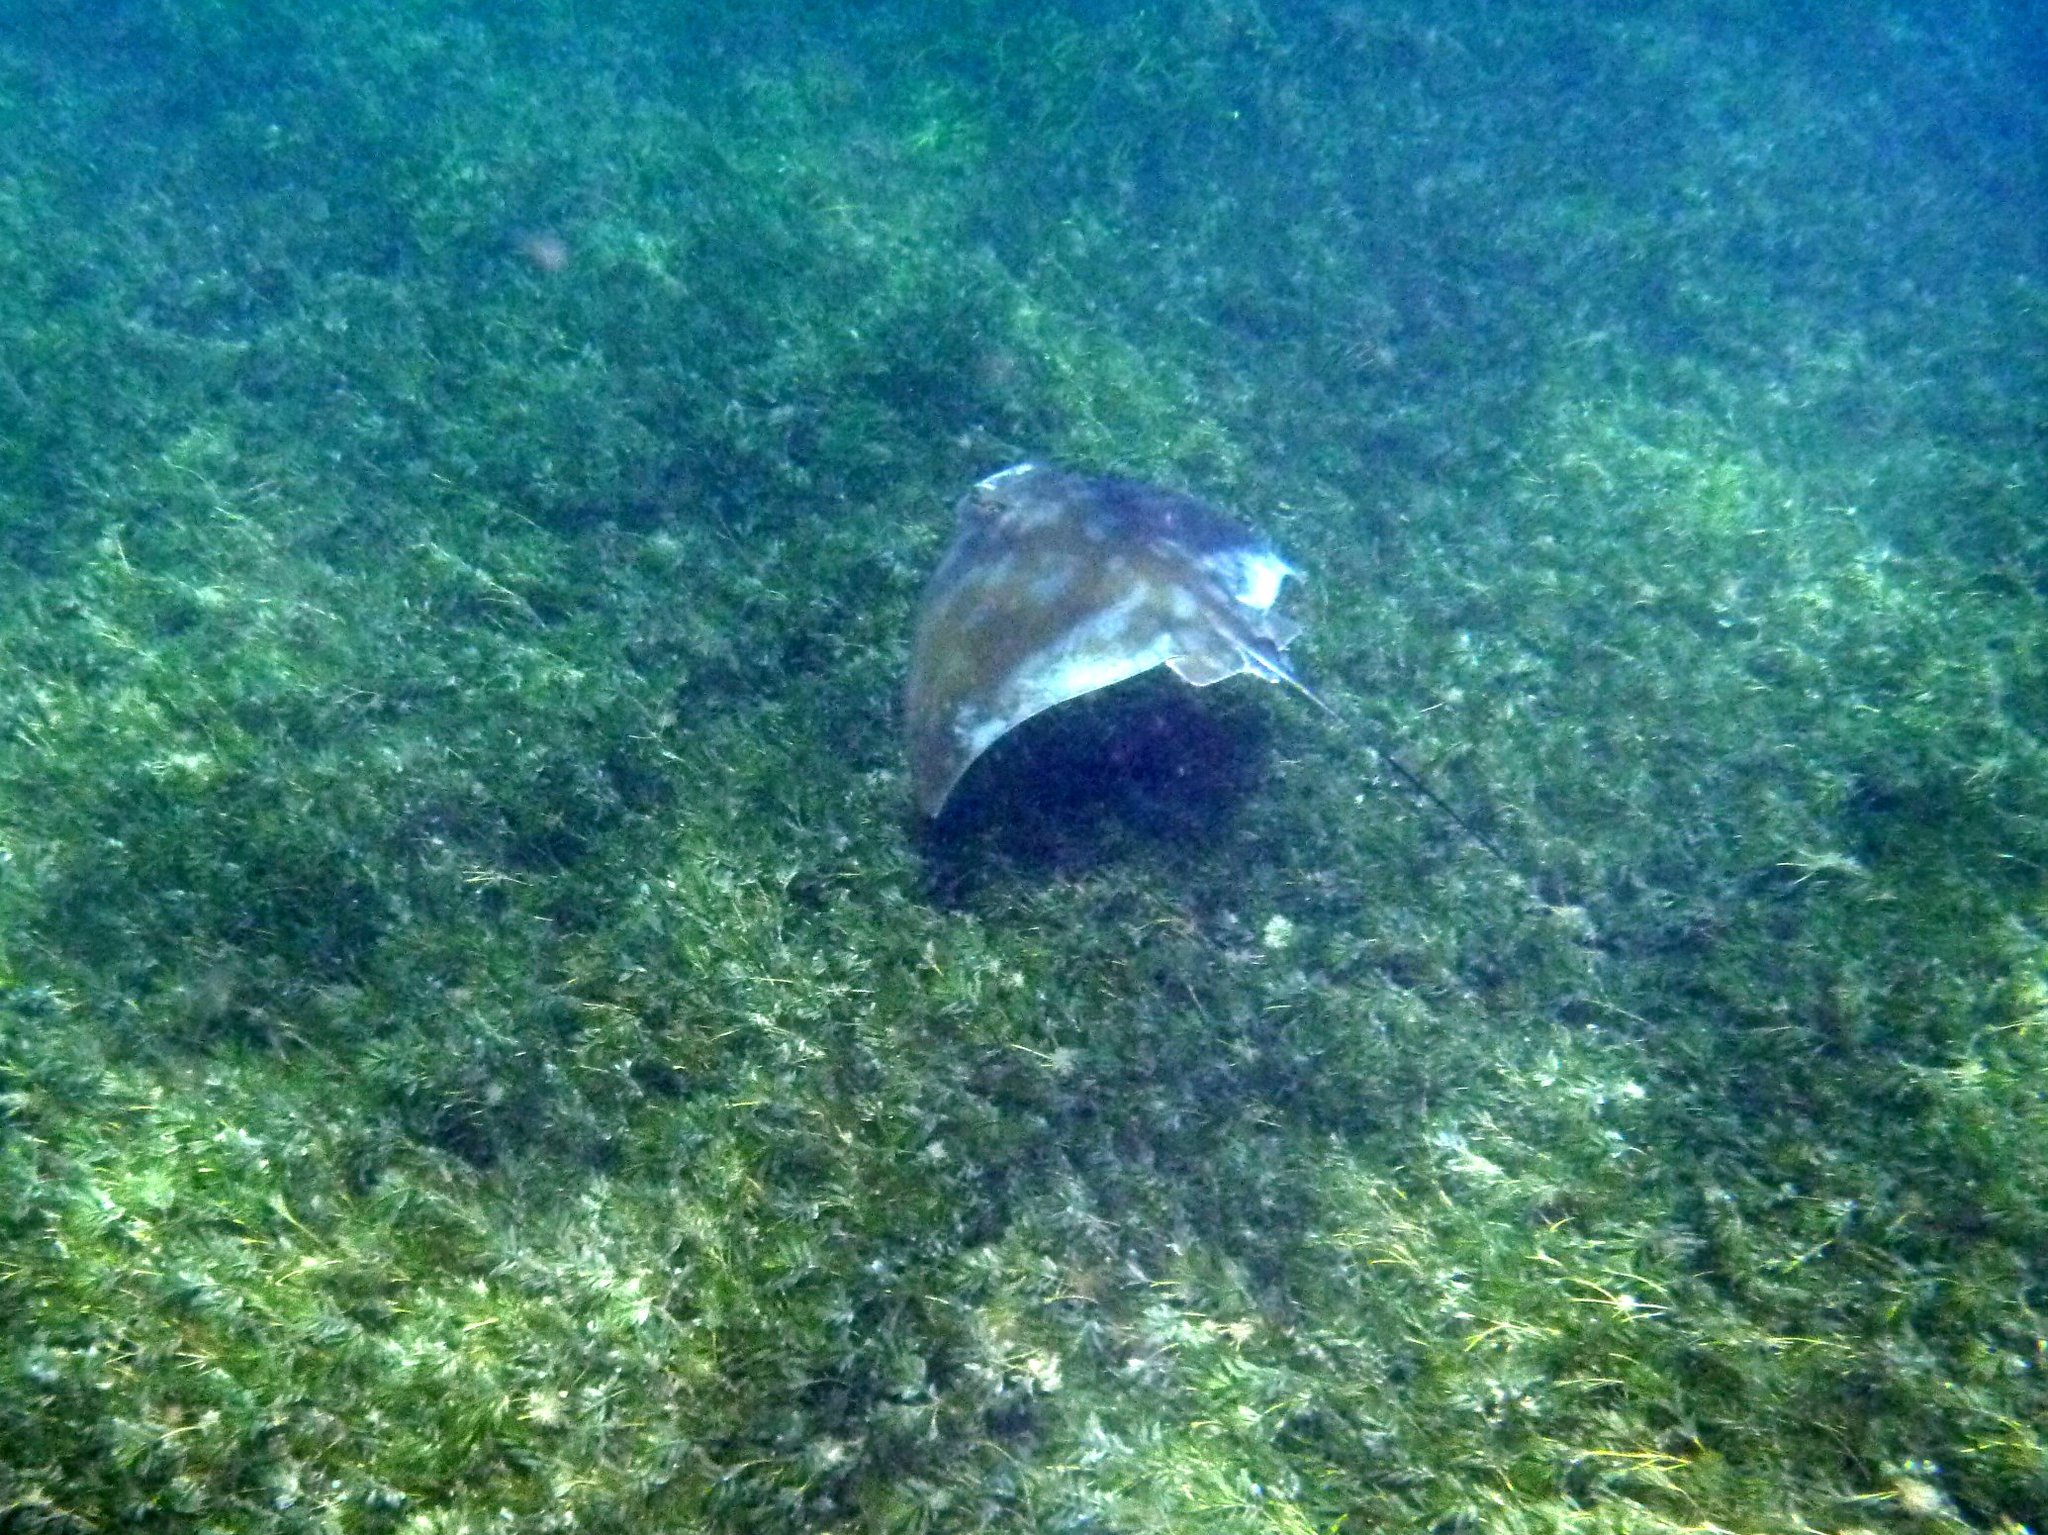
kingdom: Animalia
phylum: Chordata
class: Elasmobranchii
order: Myliobatiformes
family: Myliobatidae
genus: Myliobatis
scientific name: Myliobatis tenuicaudatus
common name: Eagle ray
